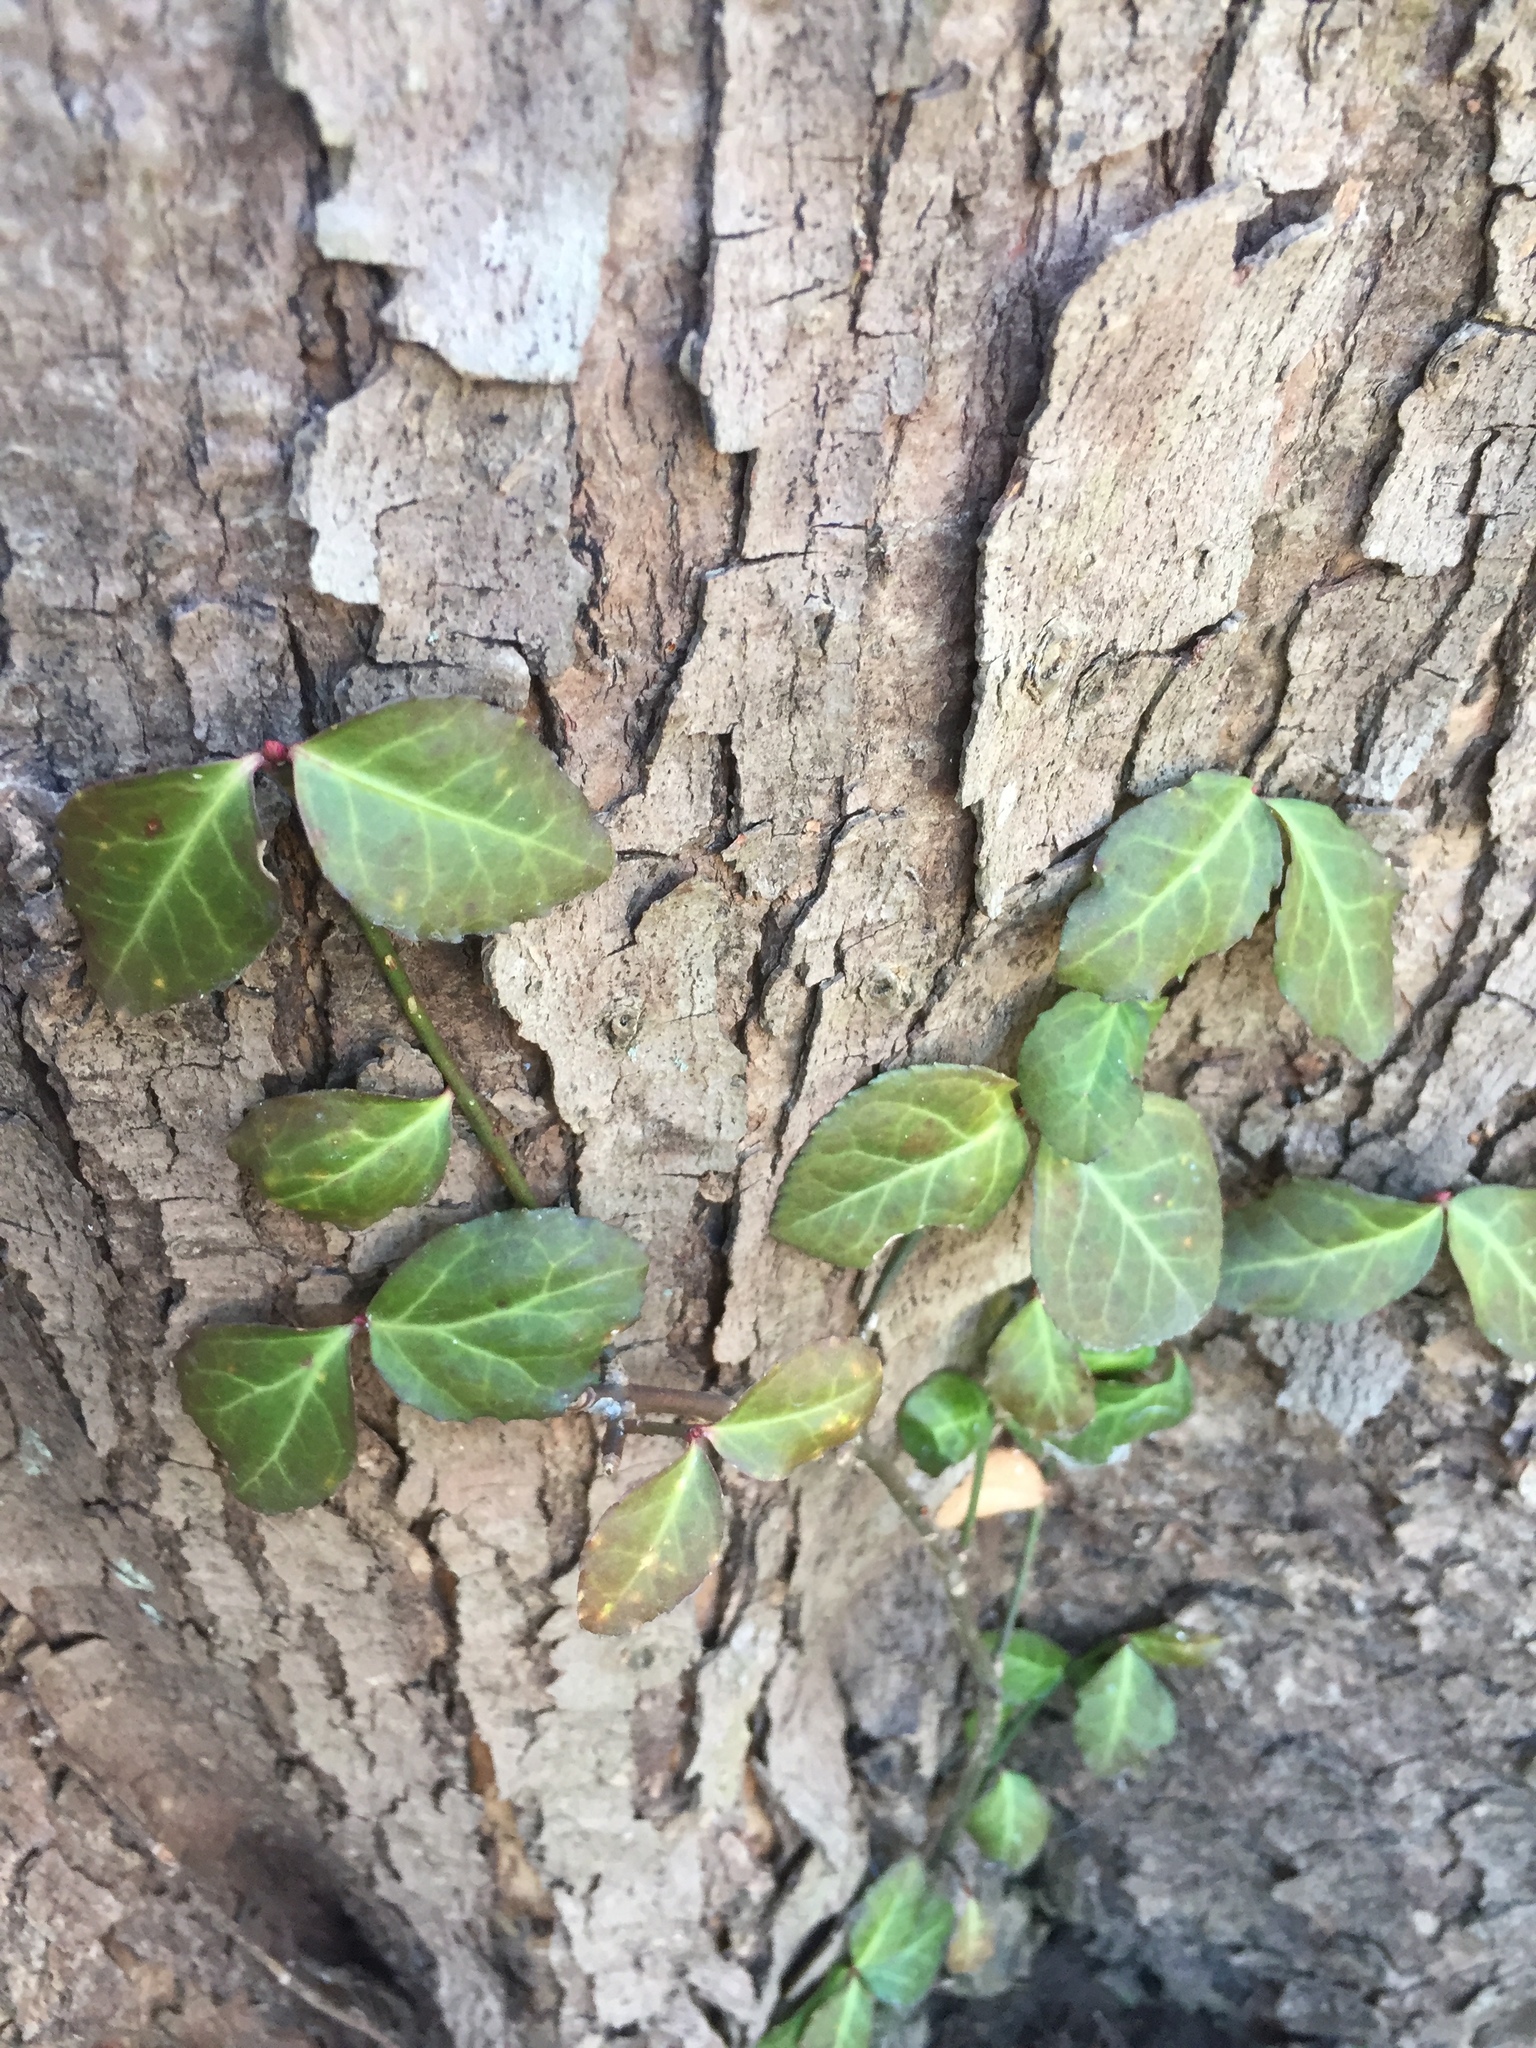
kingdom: Plantae
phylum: Tracheophyta
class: Magnoliopsida
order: Celastrales
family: Celastraceae
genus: Euonymus
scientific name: Euonymus fortunei
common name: Climbing euonymus
